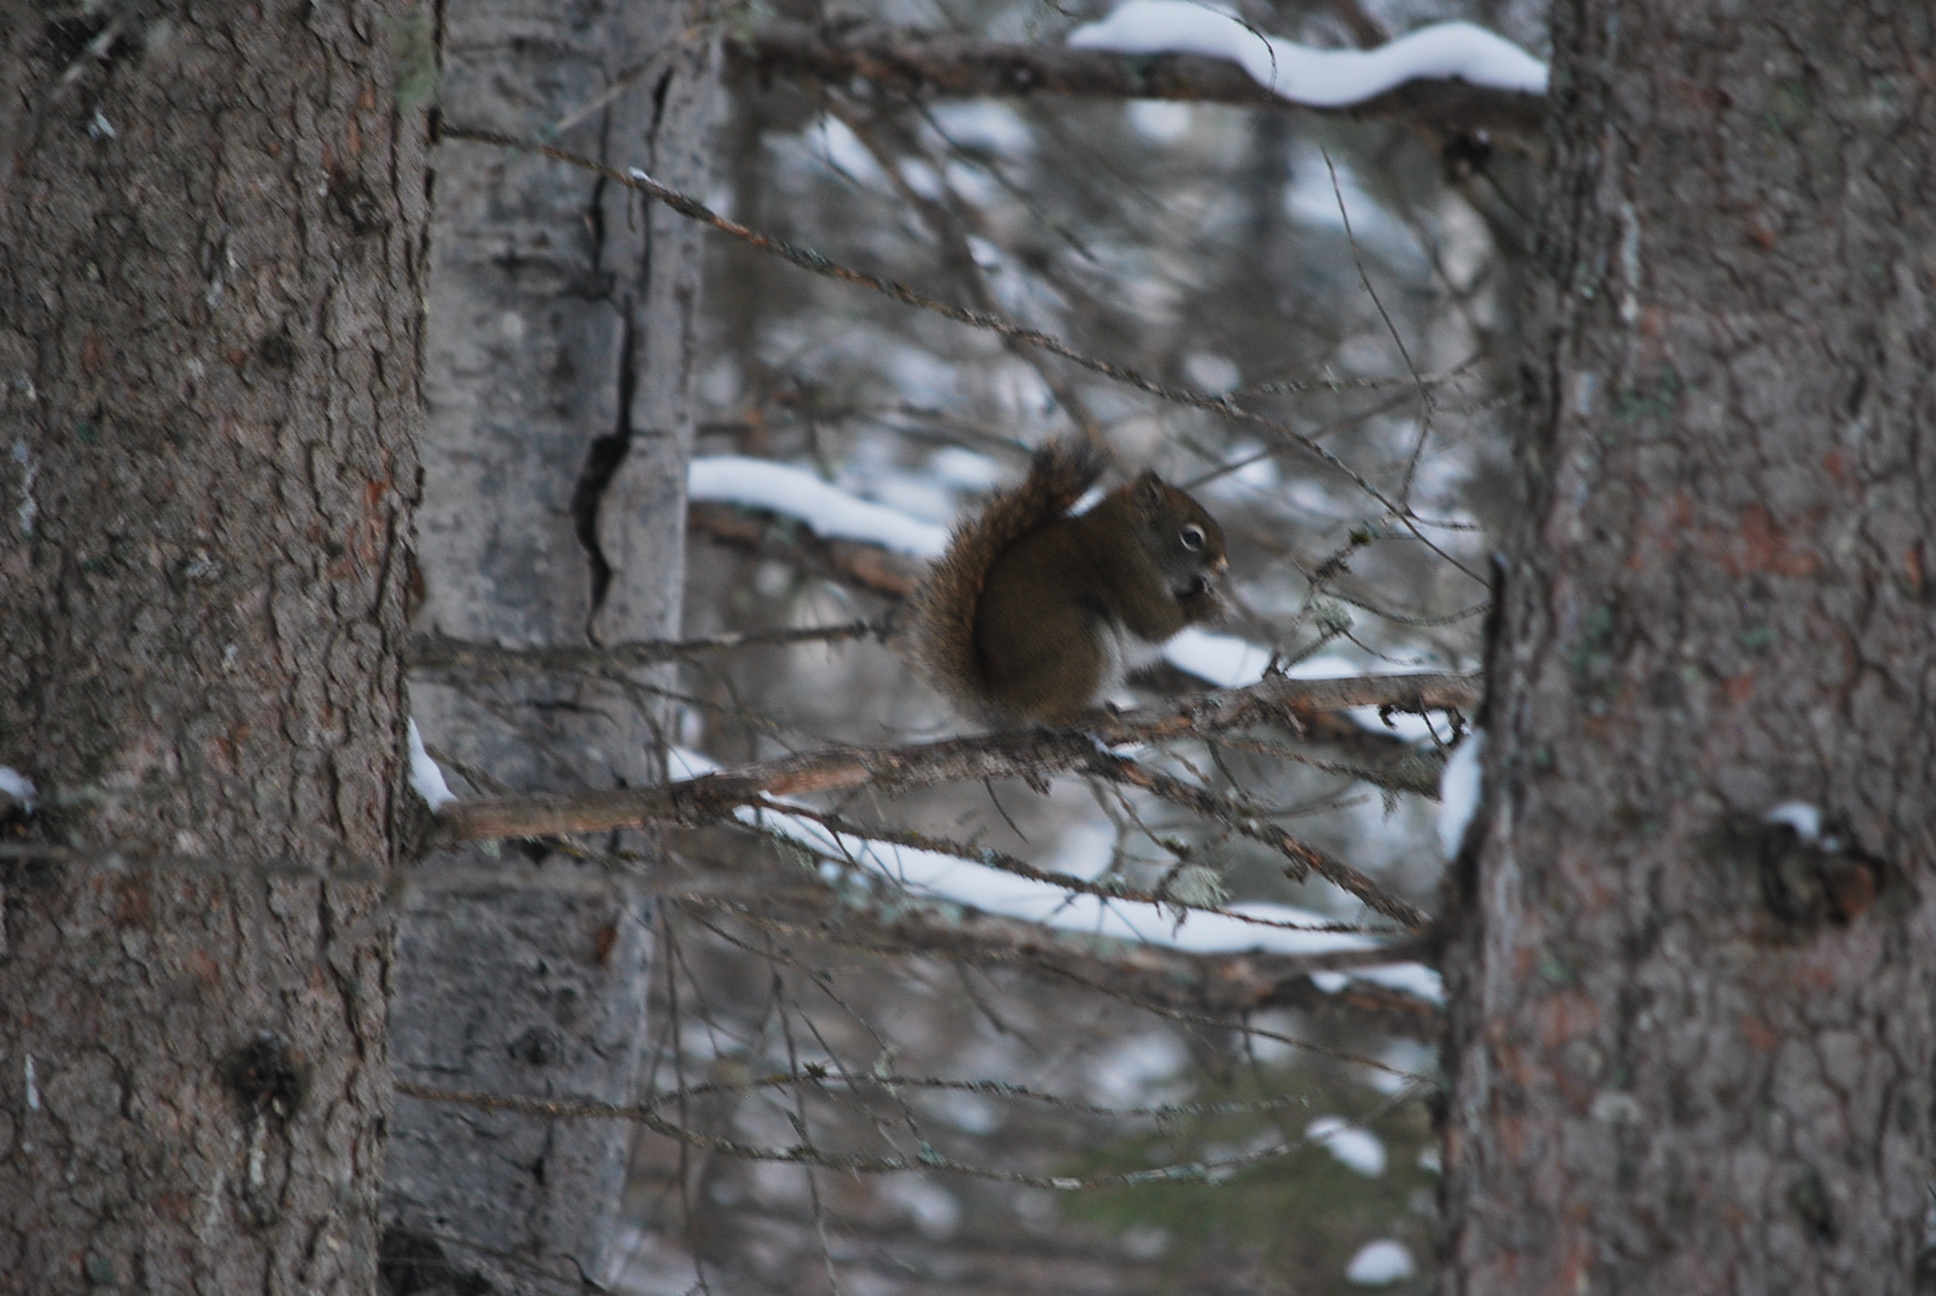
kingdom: Animalia
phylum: Chordata
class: Mammalia
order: Rodentia
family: Sciuridae
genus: Tamiasciurus
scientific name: Tamiasciurus hudsonicus
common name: Red squirrel
